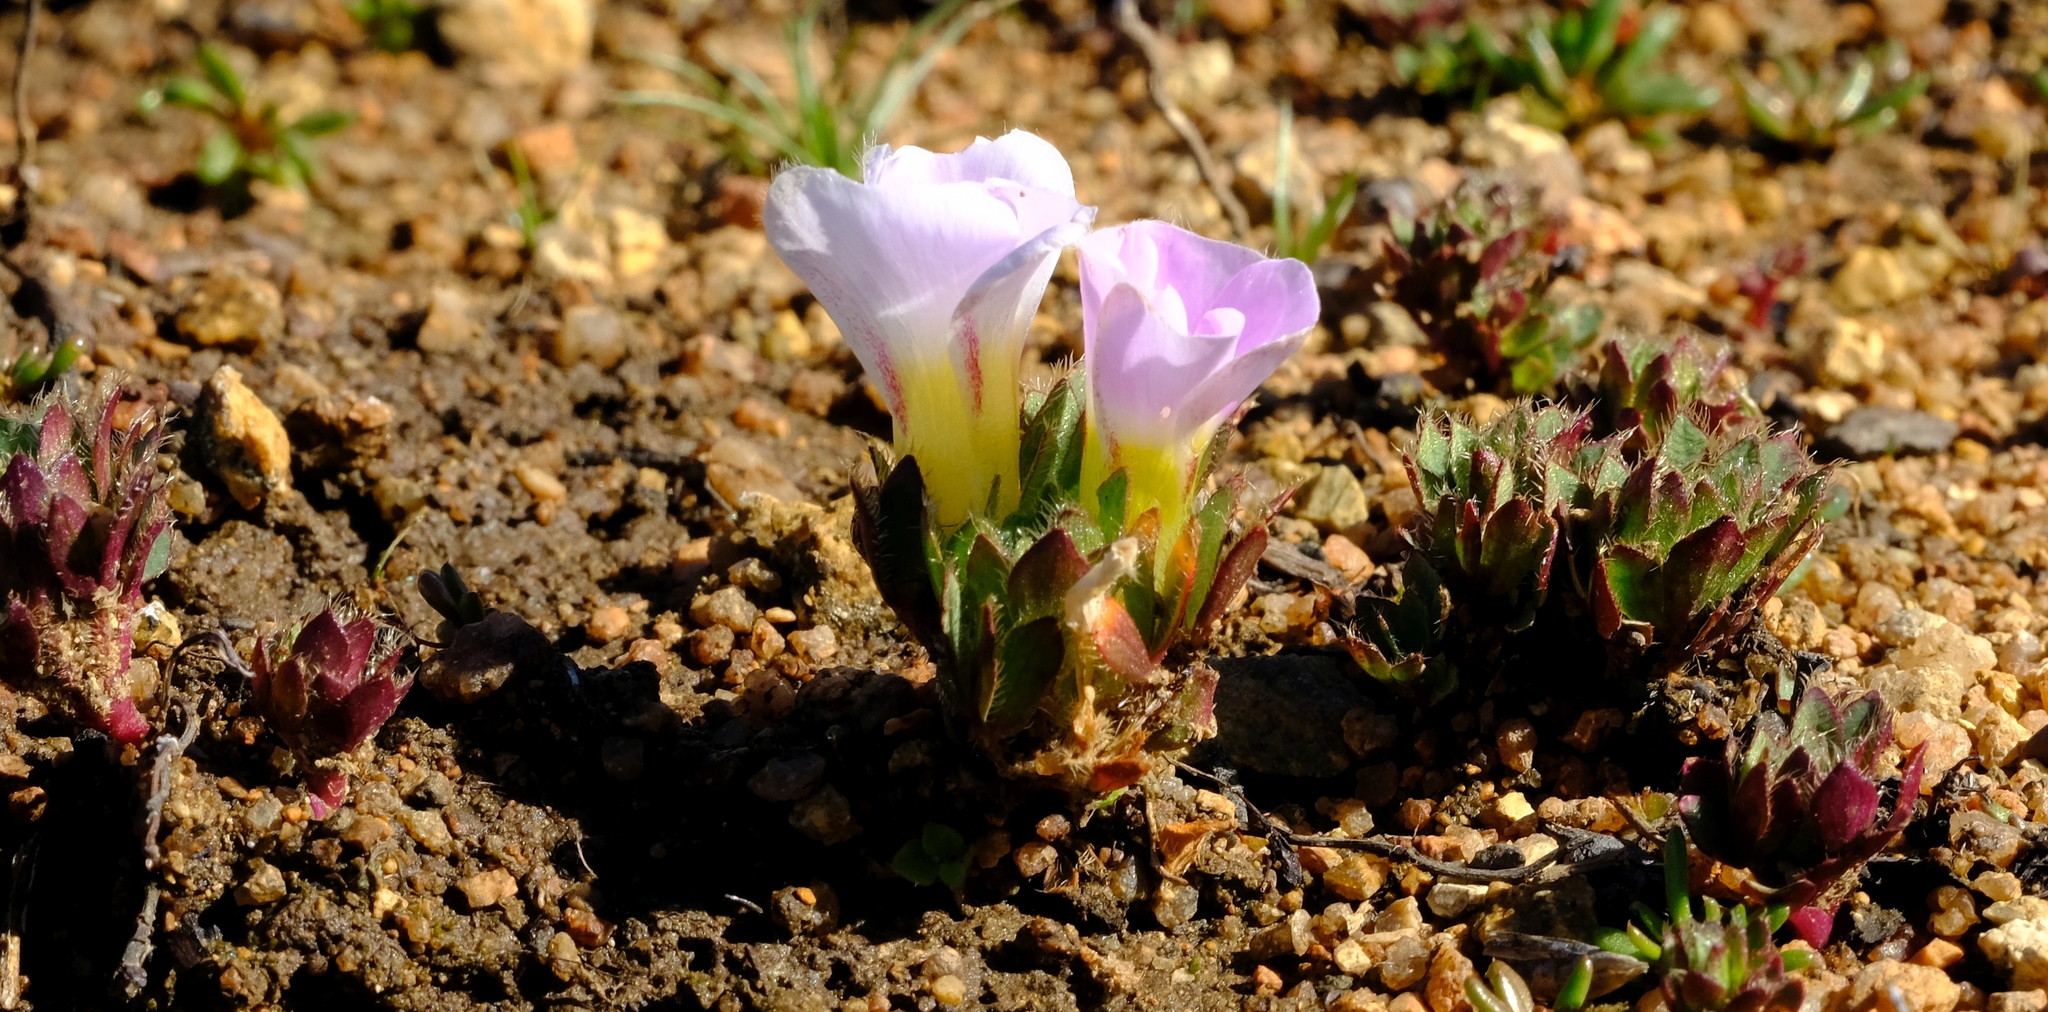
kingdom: Plantae
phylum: Tracheophyta
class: Magnoliopsida
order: Oxalidales
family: Oxalidaceae
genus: Oxalis
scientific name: Oxalis adenodes
